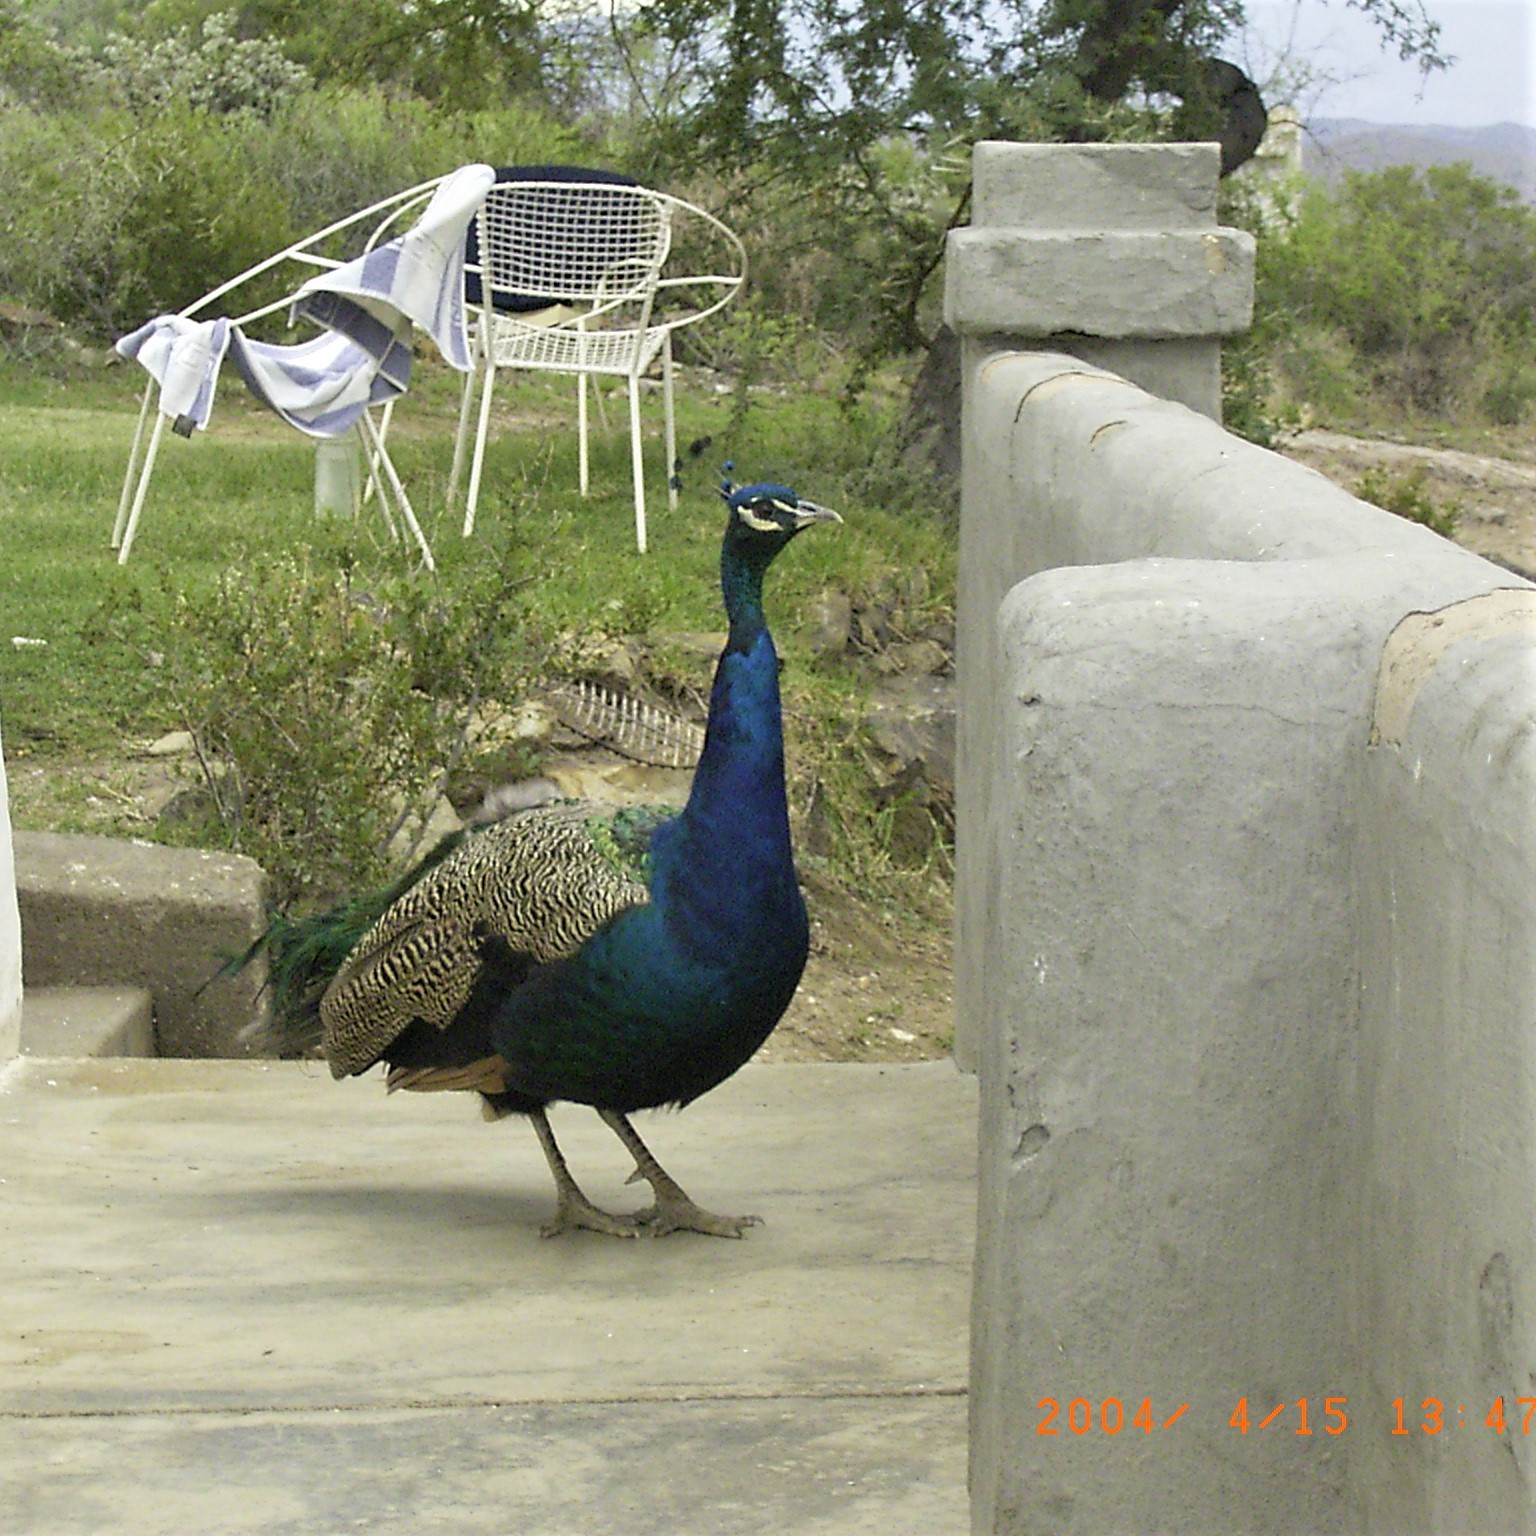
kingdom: Animalia
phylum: Chordata
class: Aves
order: Galliformes
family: Phasianidae
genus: Pavo
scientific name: Pavo cristatus
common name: Indian peafowl
